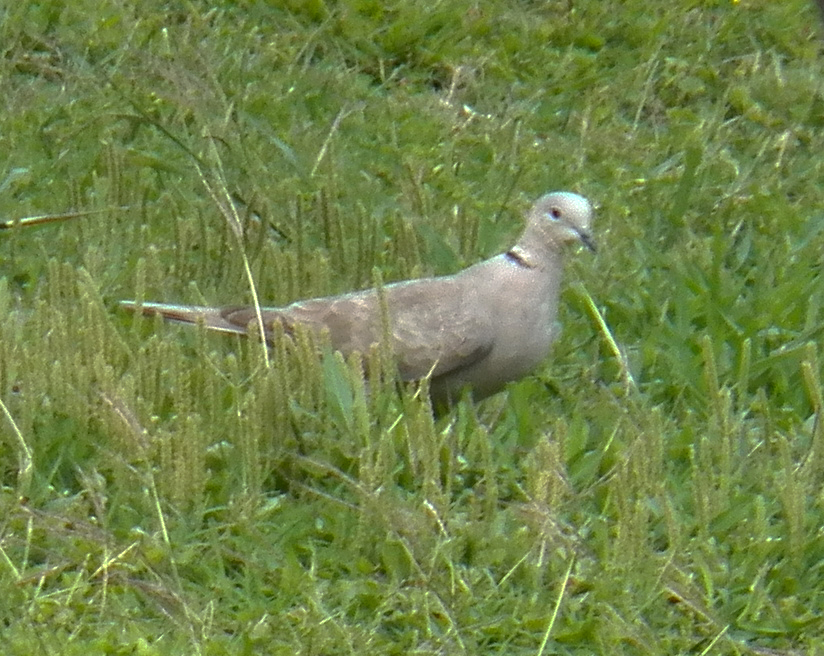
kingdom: Animalia
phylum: Chordata
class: Aves
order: Columbiformes
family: Columbidae
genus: Streptopelia
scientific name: Streptopelia decaocto
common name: Eurasian collared dove
